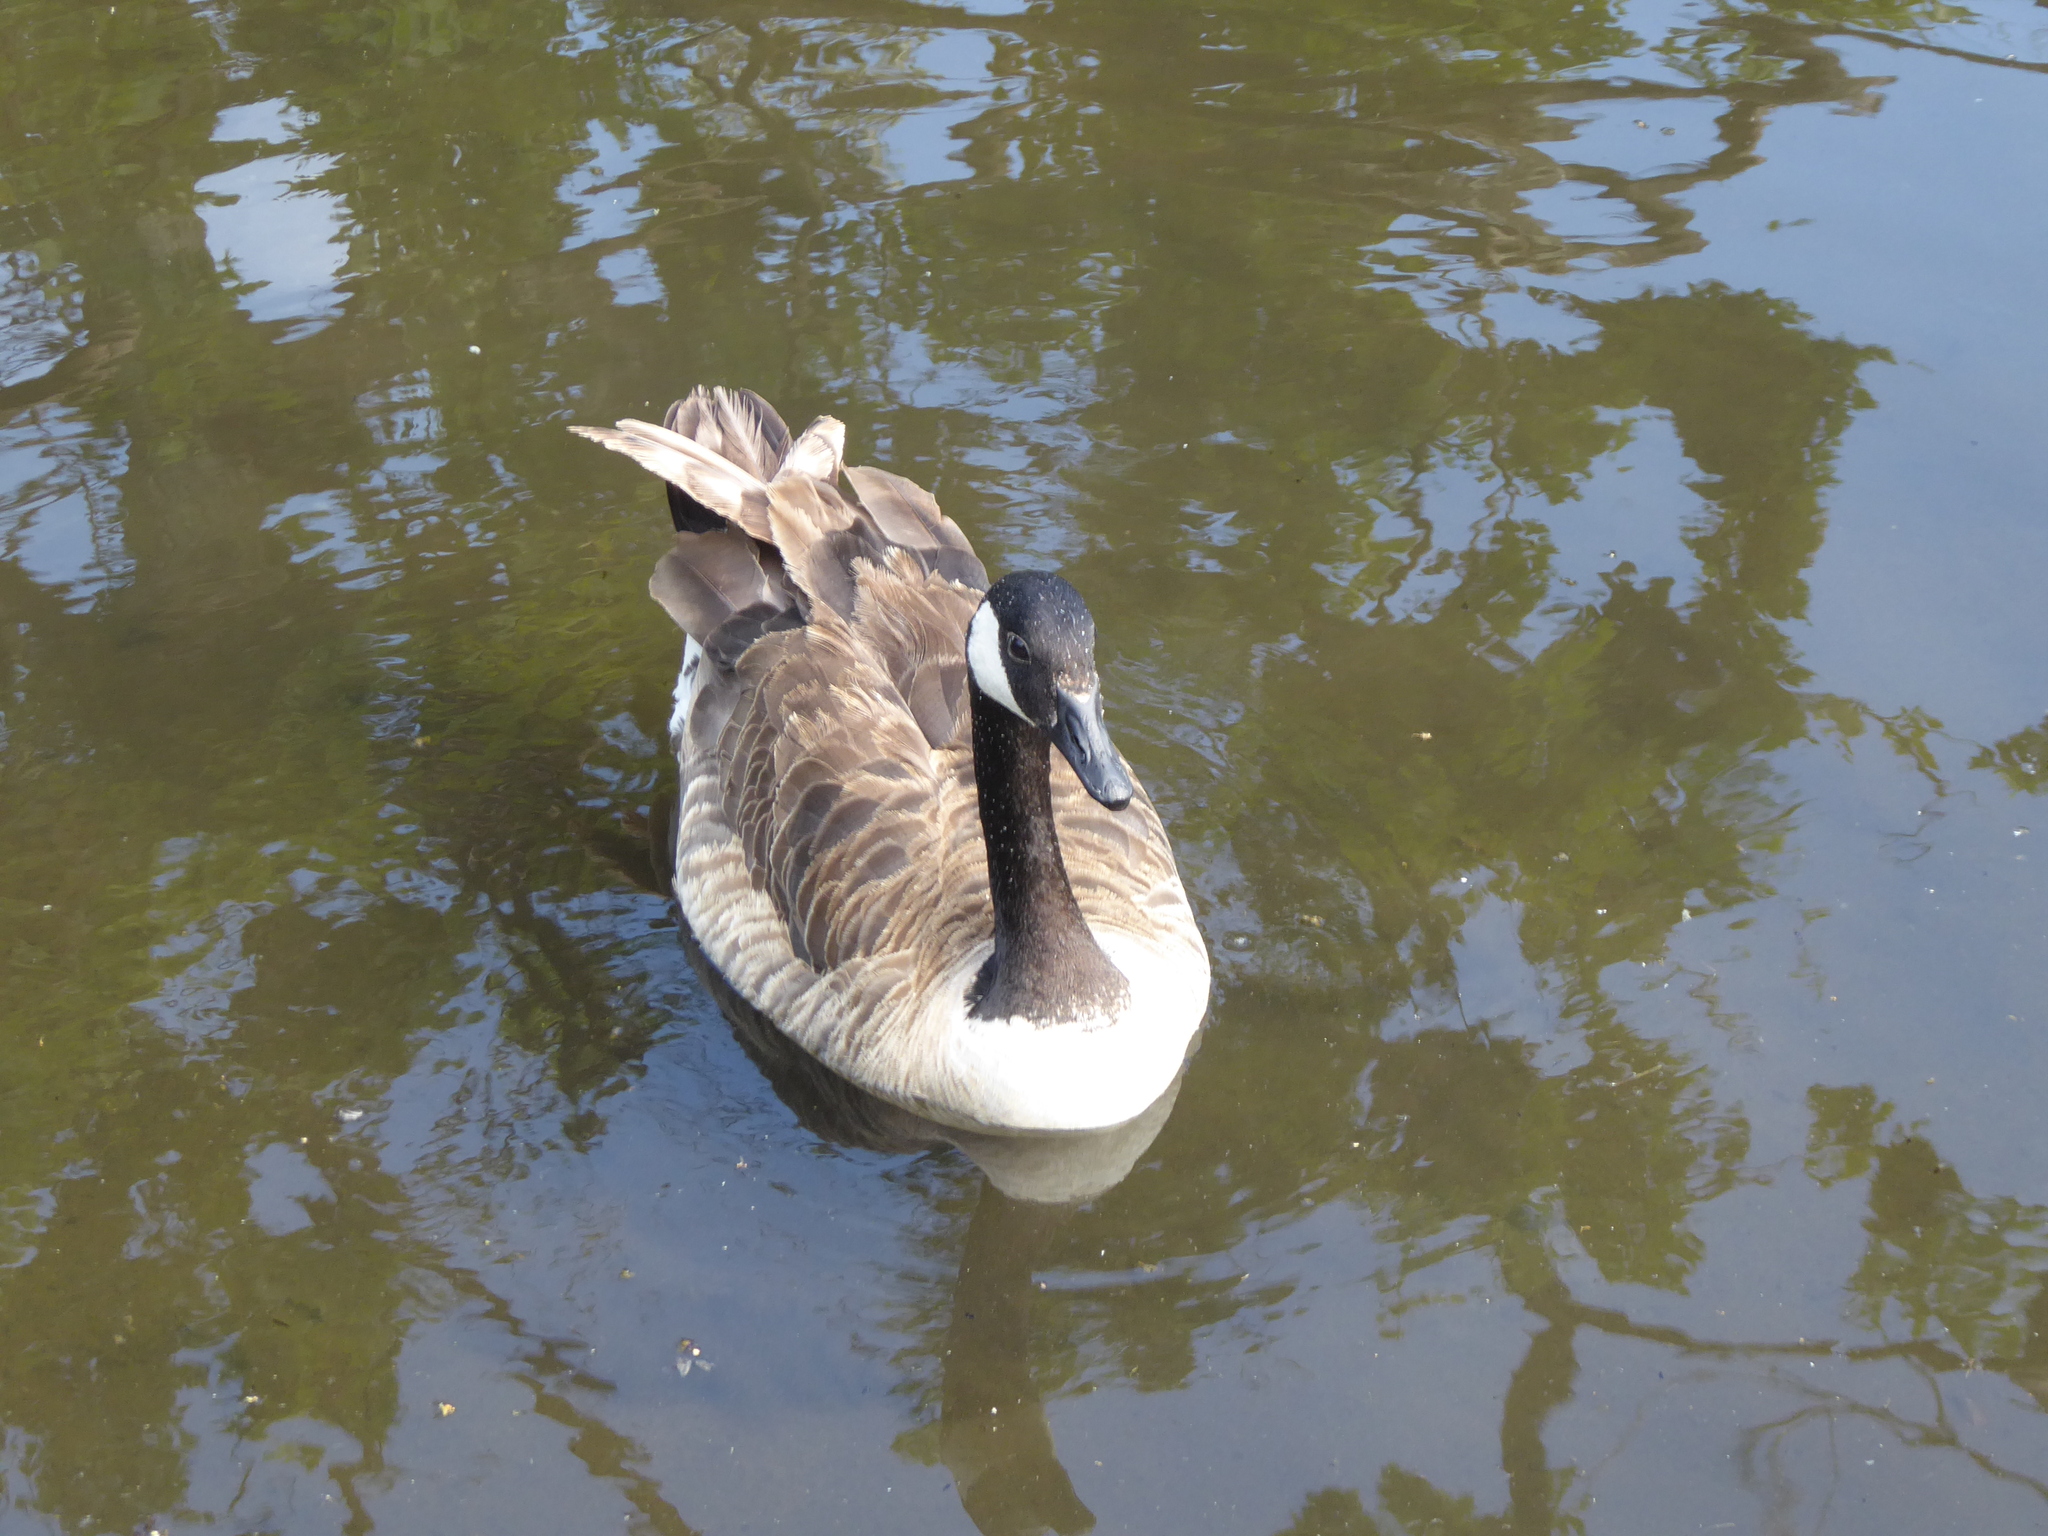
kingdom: Animalia
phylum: Chordata
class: Aves
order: Anseriformes
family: Anatidae
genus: Branta
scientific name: Branta canadensis
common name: Canada goose
